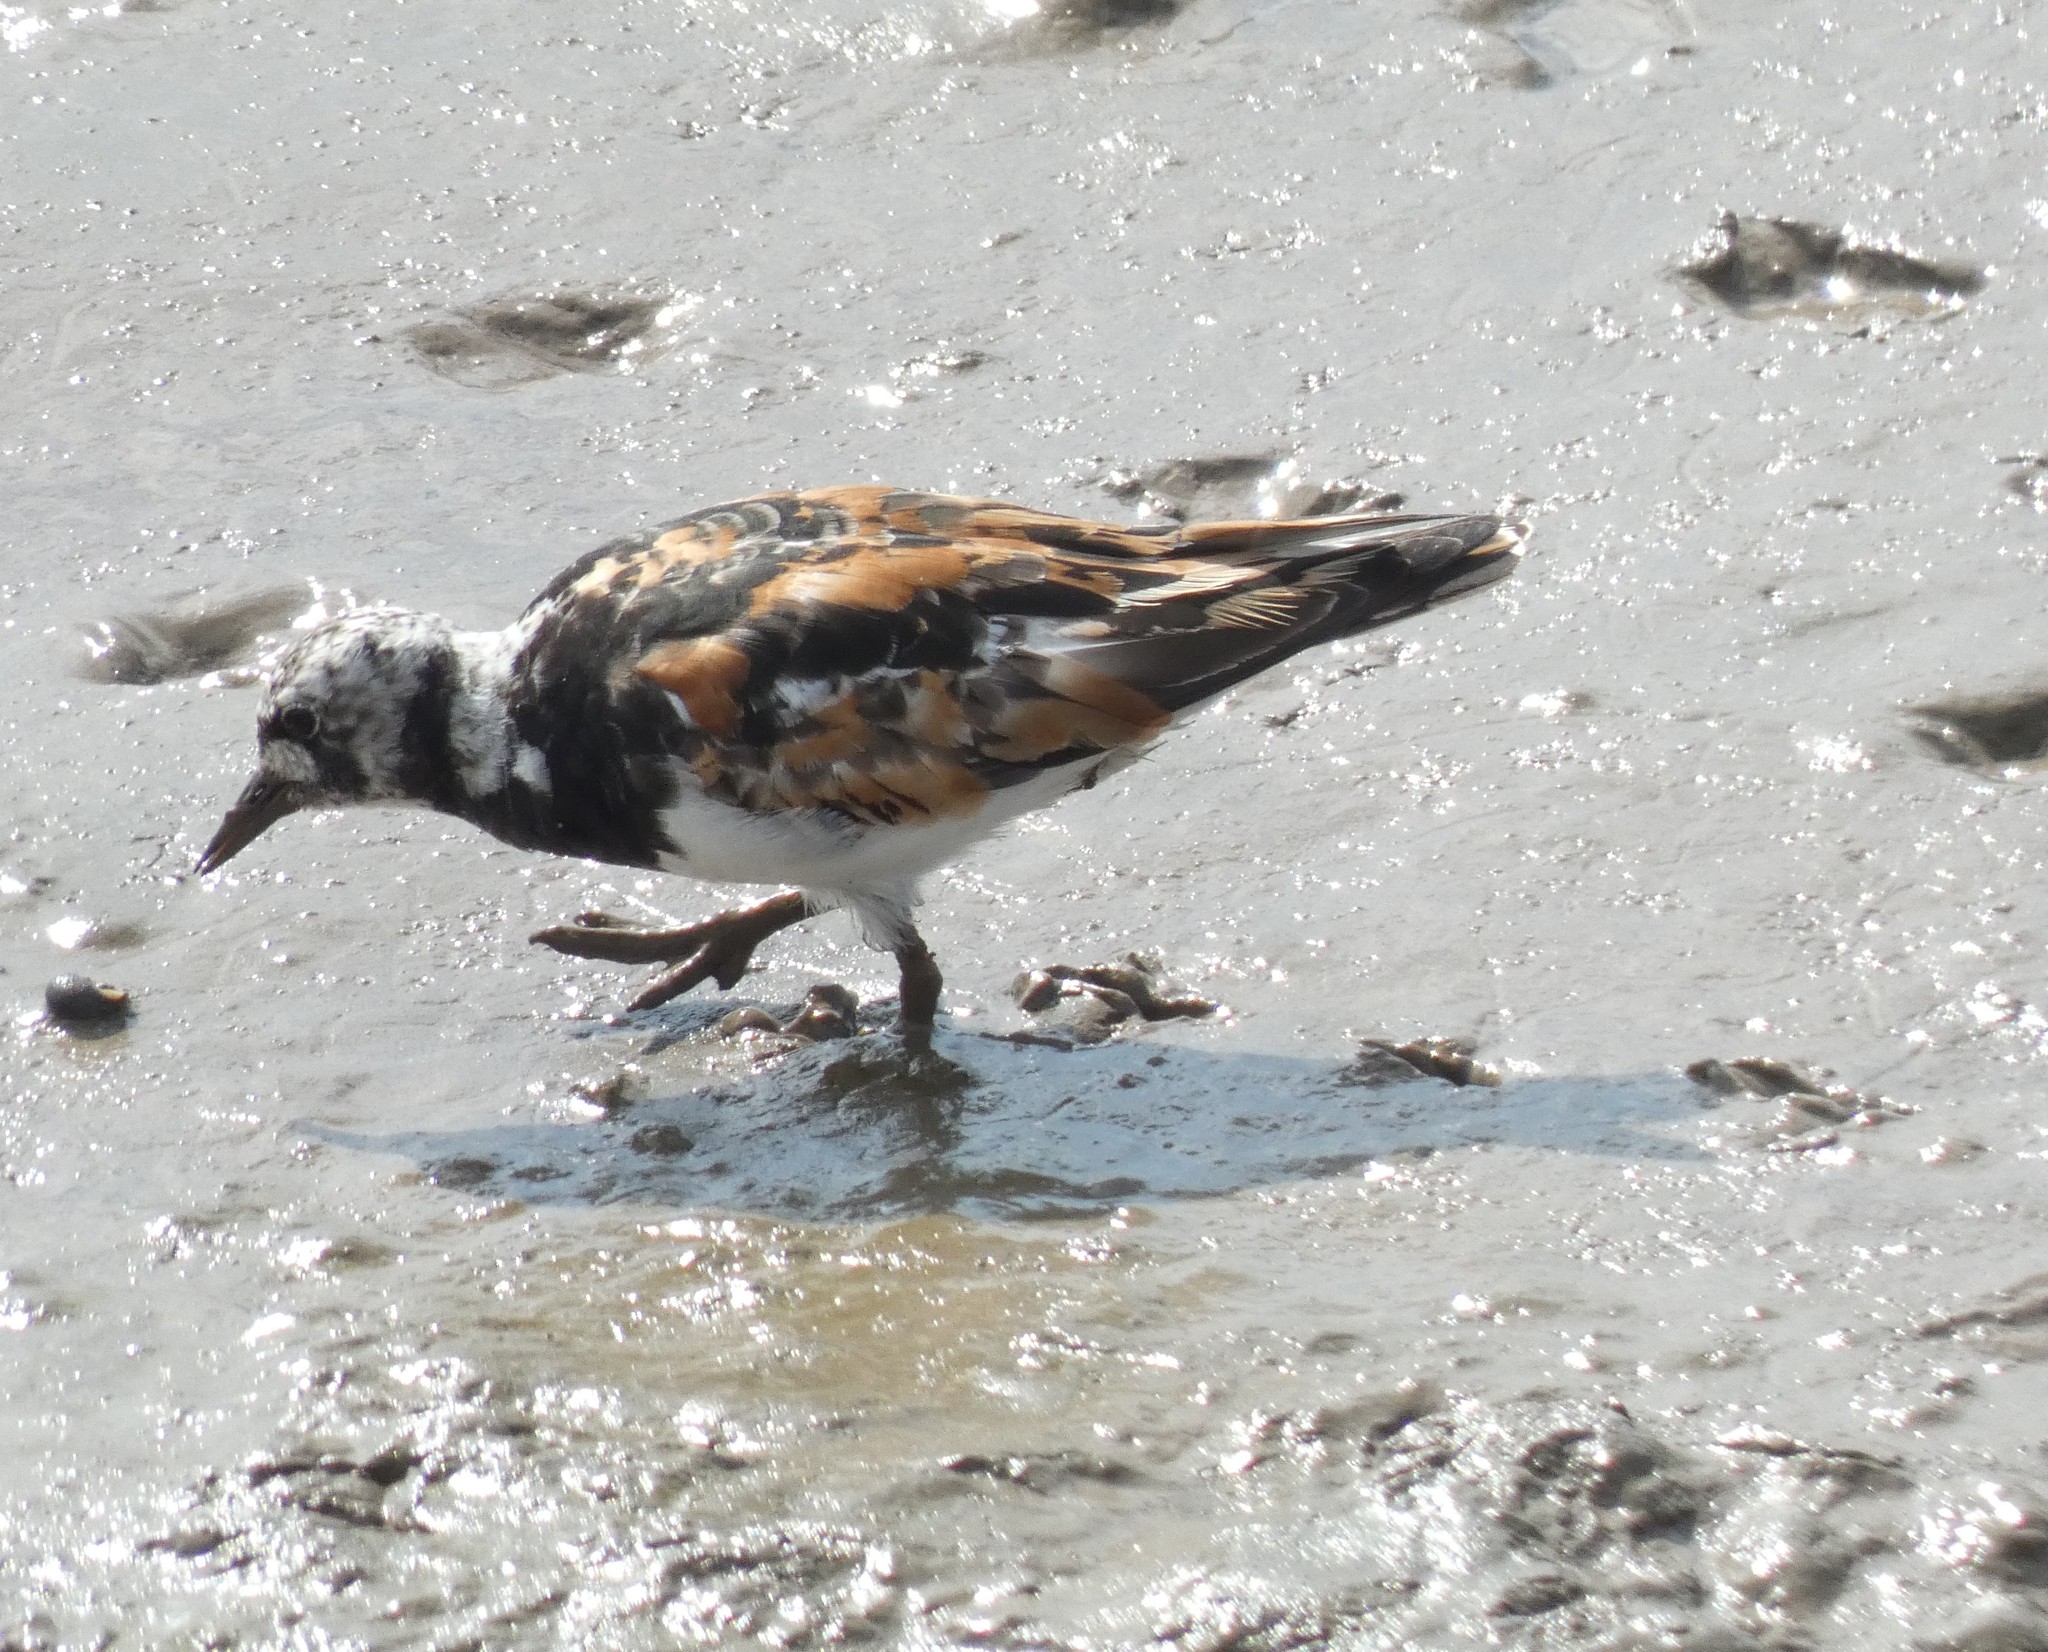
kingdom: Animalia
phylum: Chordata
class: Aves
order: Charadriiformes
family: Scolopacidae
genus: Arenaria
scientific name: Arenaria interpres
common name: Ruddy turnstone
